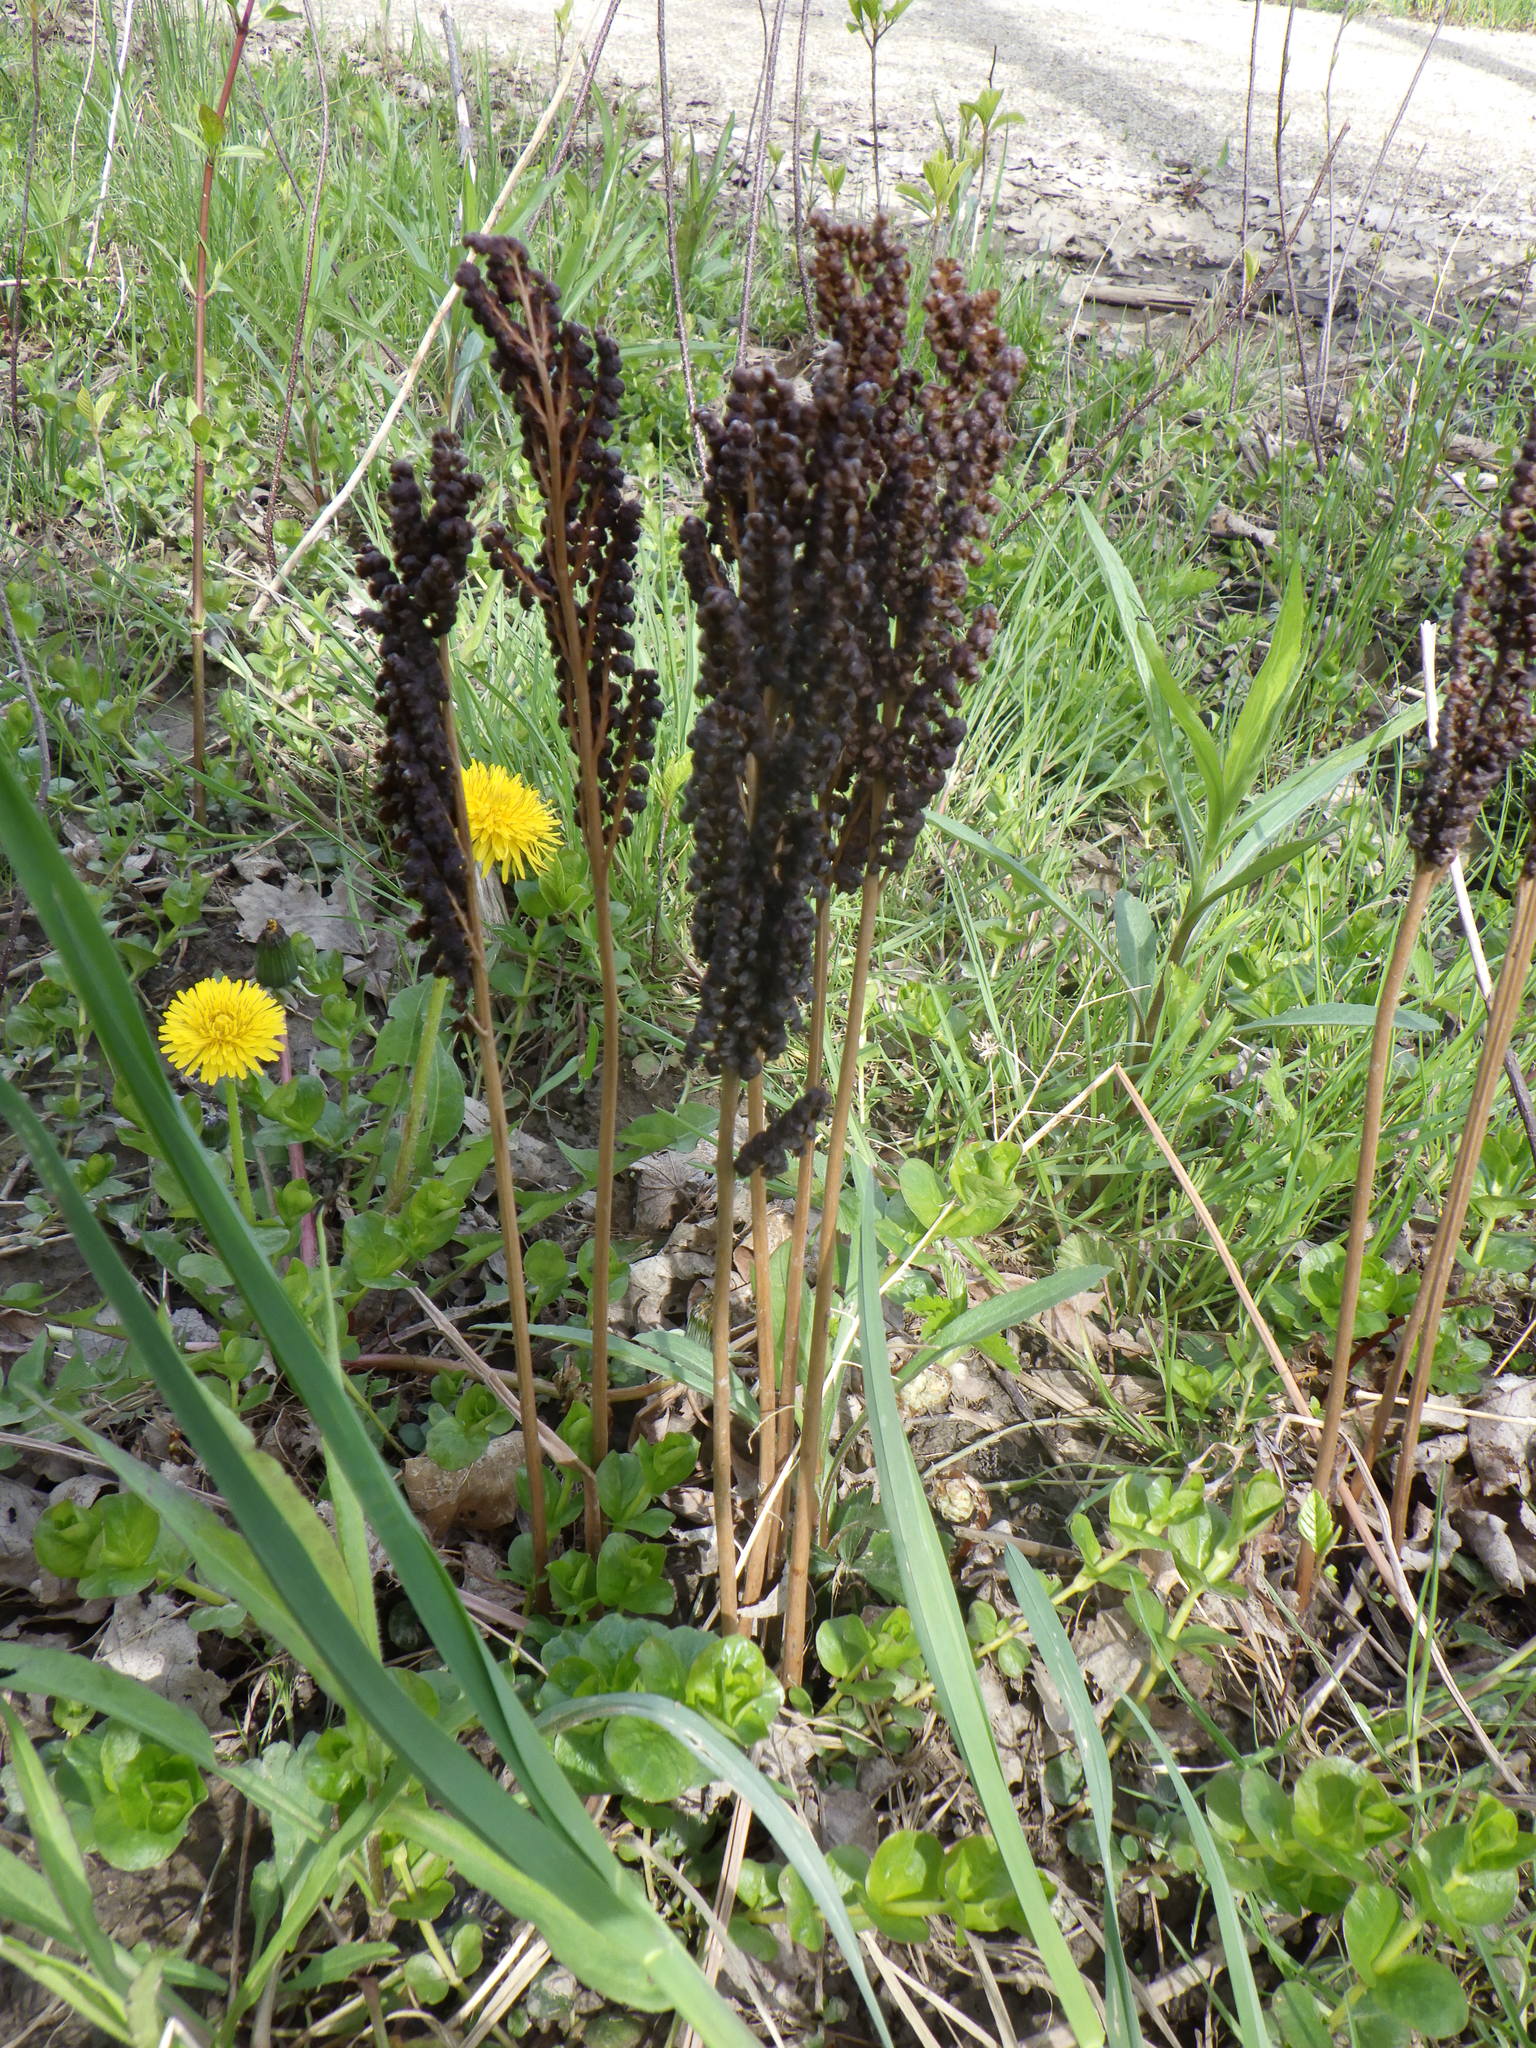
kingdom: Plantae
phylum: Tracheophyta
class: Polypodiopsida
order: Polypodiales
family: Onocleaceae
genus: Onoclea
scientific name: Onoclea sensibilis
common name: Sensitive fern
